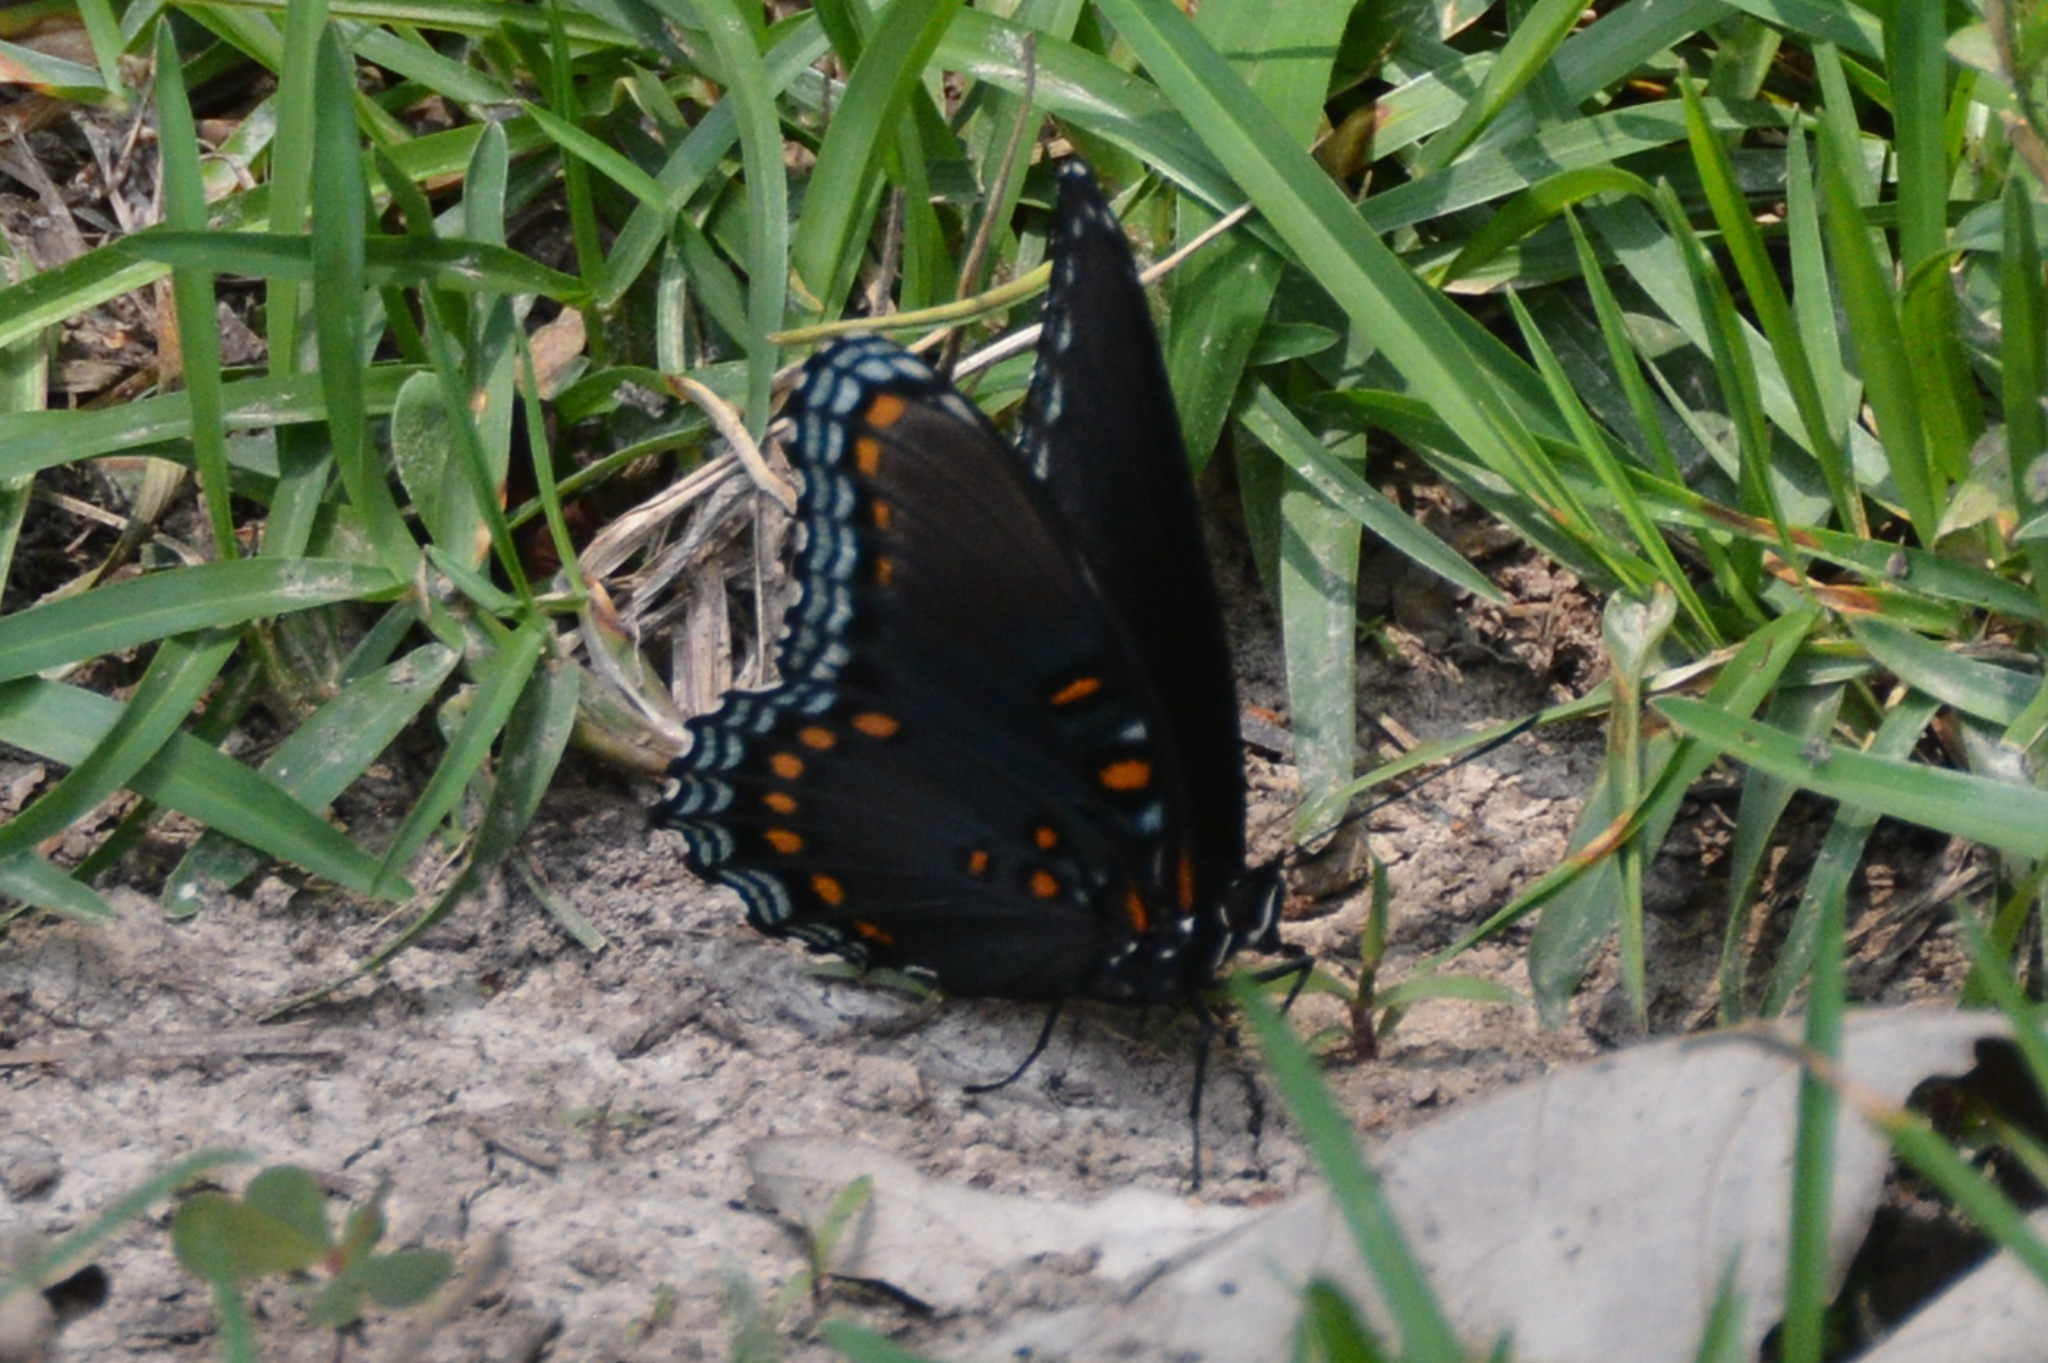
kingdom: Animalia
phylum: Arthropoda
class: Insecta
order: Lepidoptera
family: Nymphalidae
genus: Limenitis
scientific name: Limenitis astyanax
